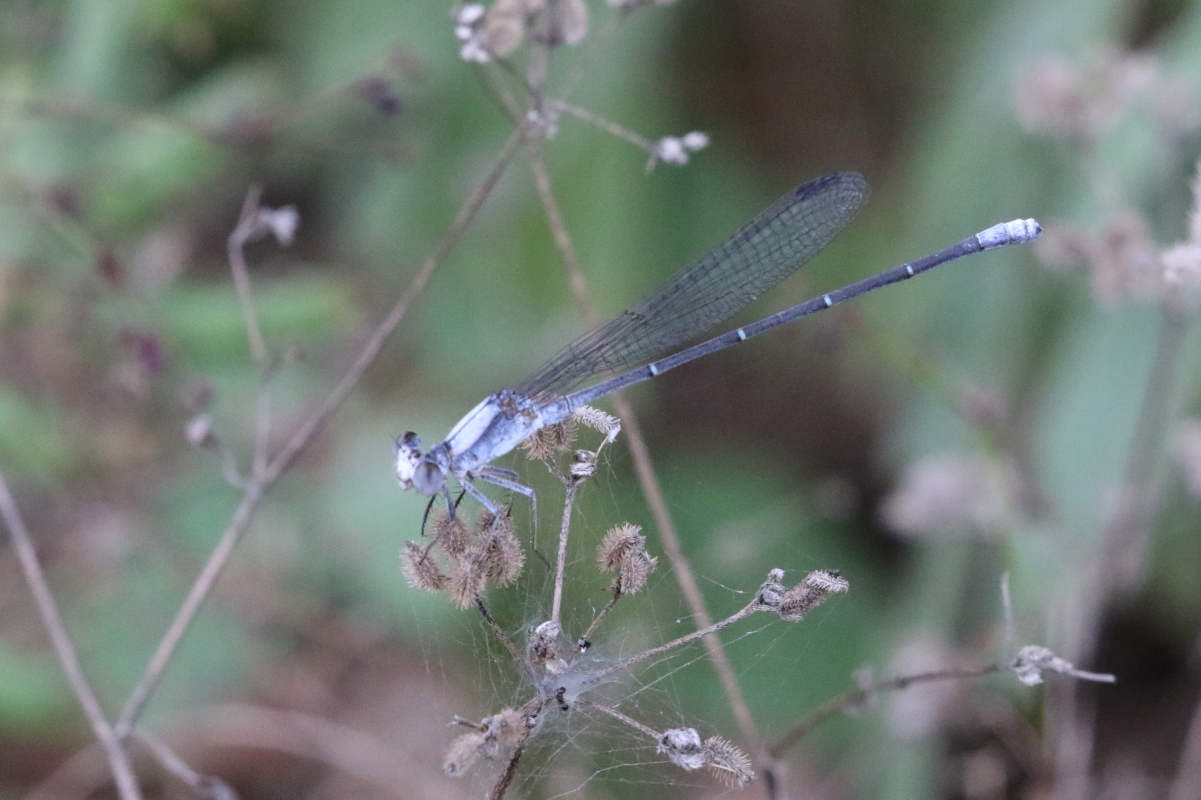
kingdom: Animalia
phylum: Arthropoda
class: Insecta
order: Odonata
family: Coenagrionidae
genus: Argia
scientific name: Argia moesta
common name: Powdered dancer
